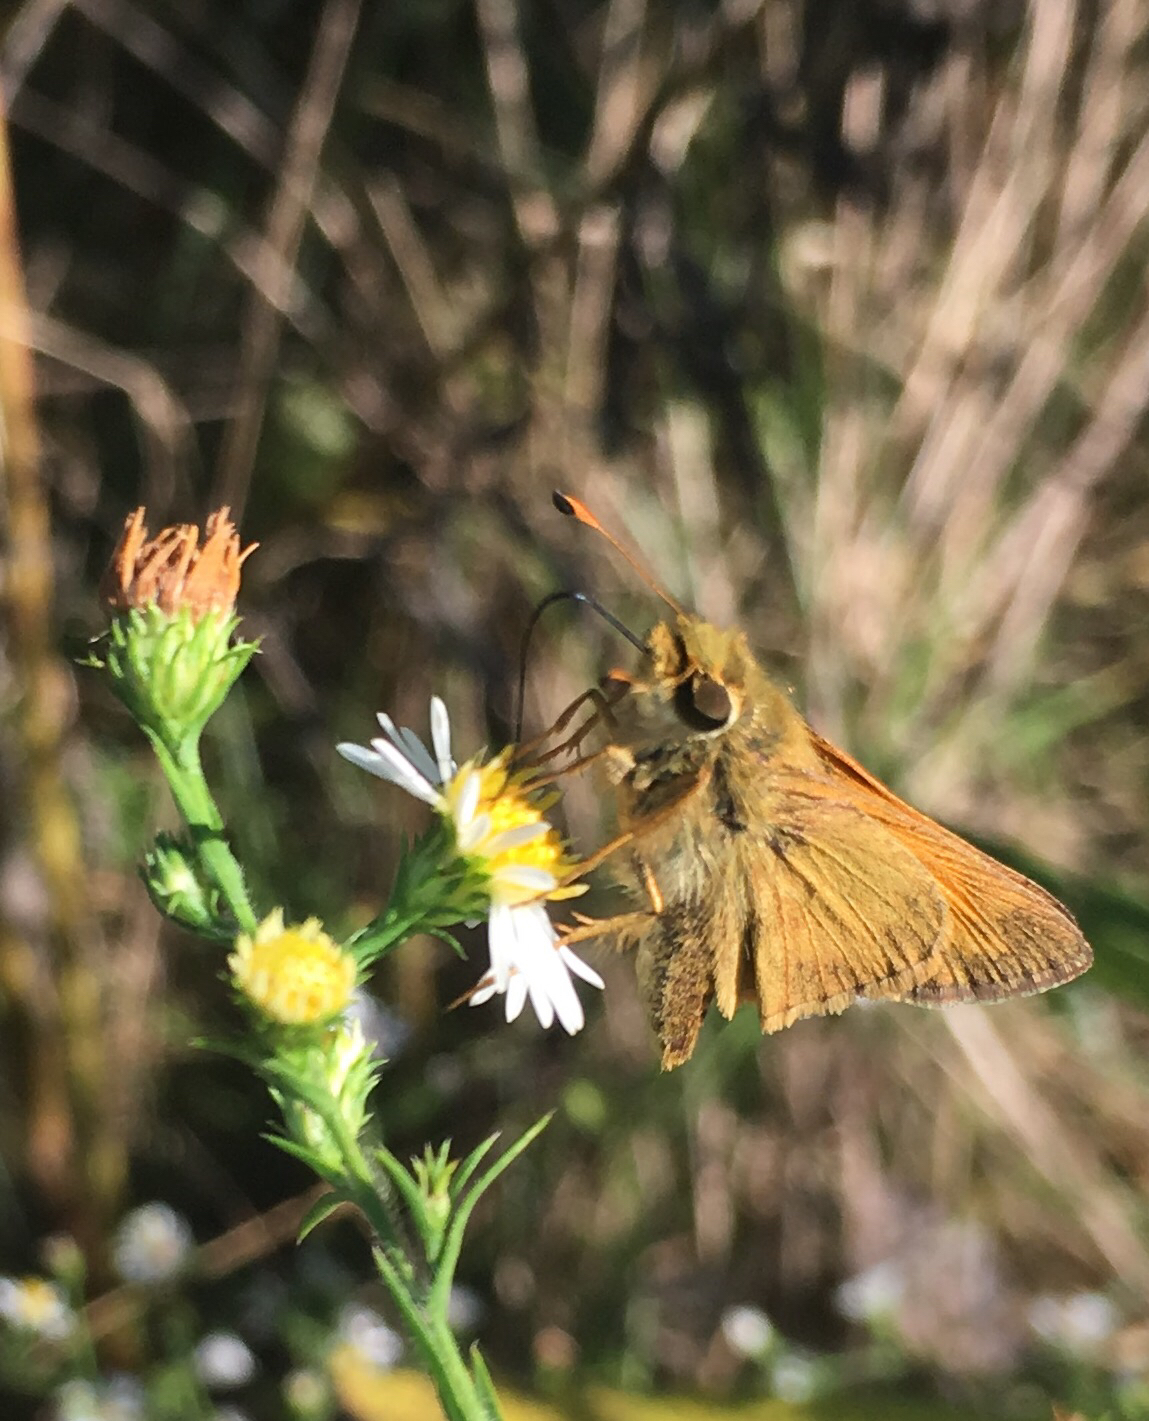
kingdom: Animalia
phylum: Arthropoda
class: Insecta
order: Lepidoptera
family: Hesperiidae
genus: Atalopedes
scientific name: Atalopedes
